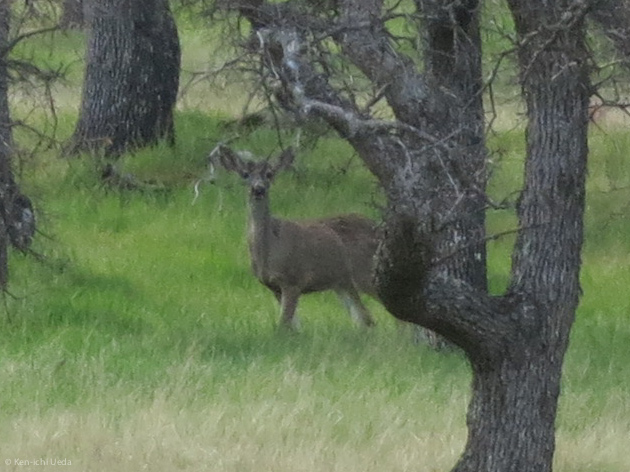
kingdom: Animalia
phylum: Chordata
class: Mammalia
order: Artiodactyla
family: Cervidae
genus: Odocoileus
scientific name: Odocoileus hemionus
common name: Mule deer
